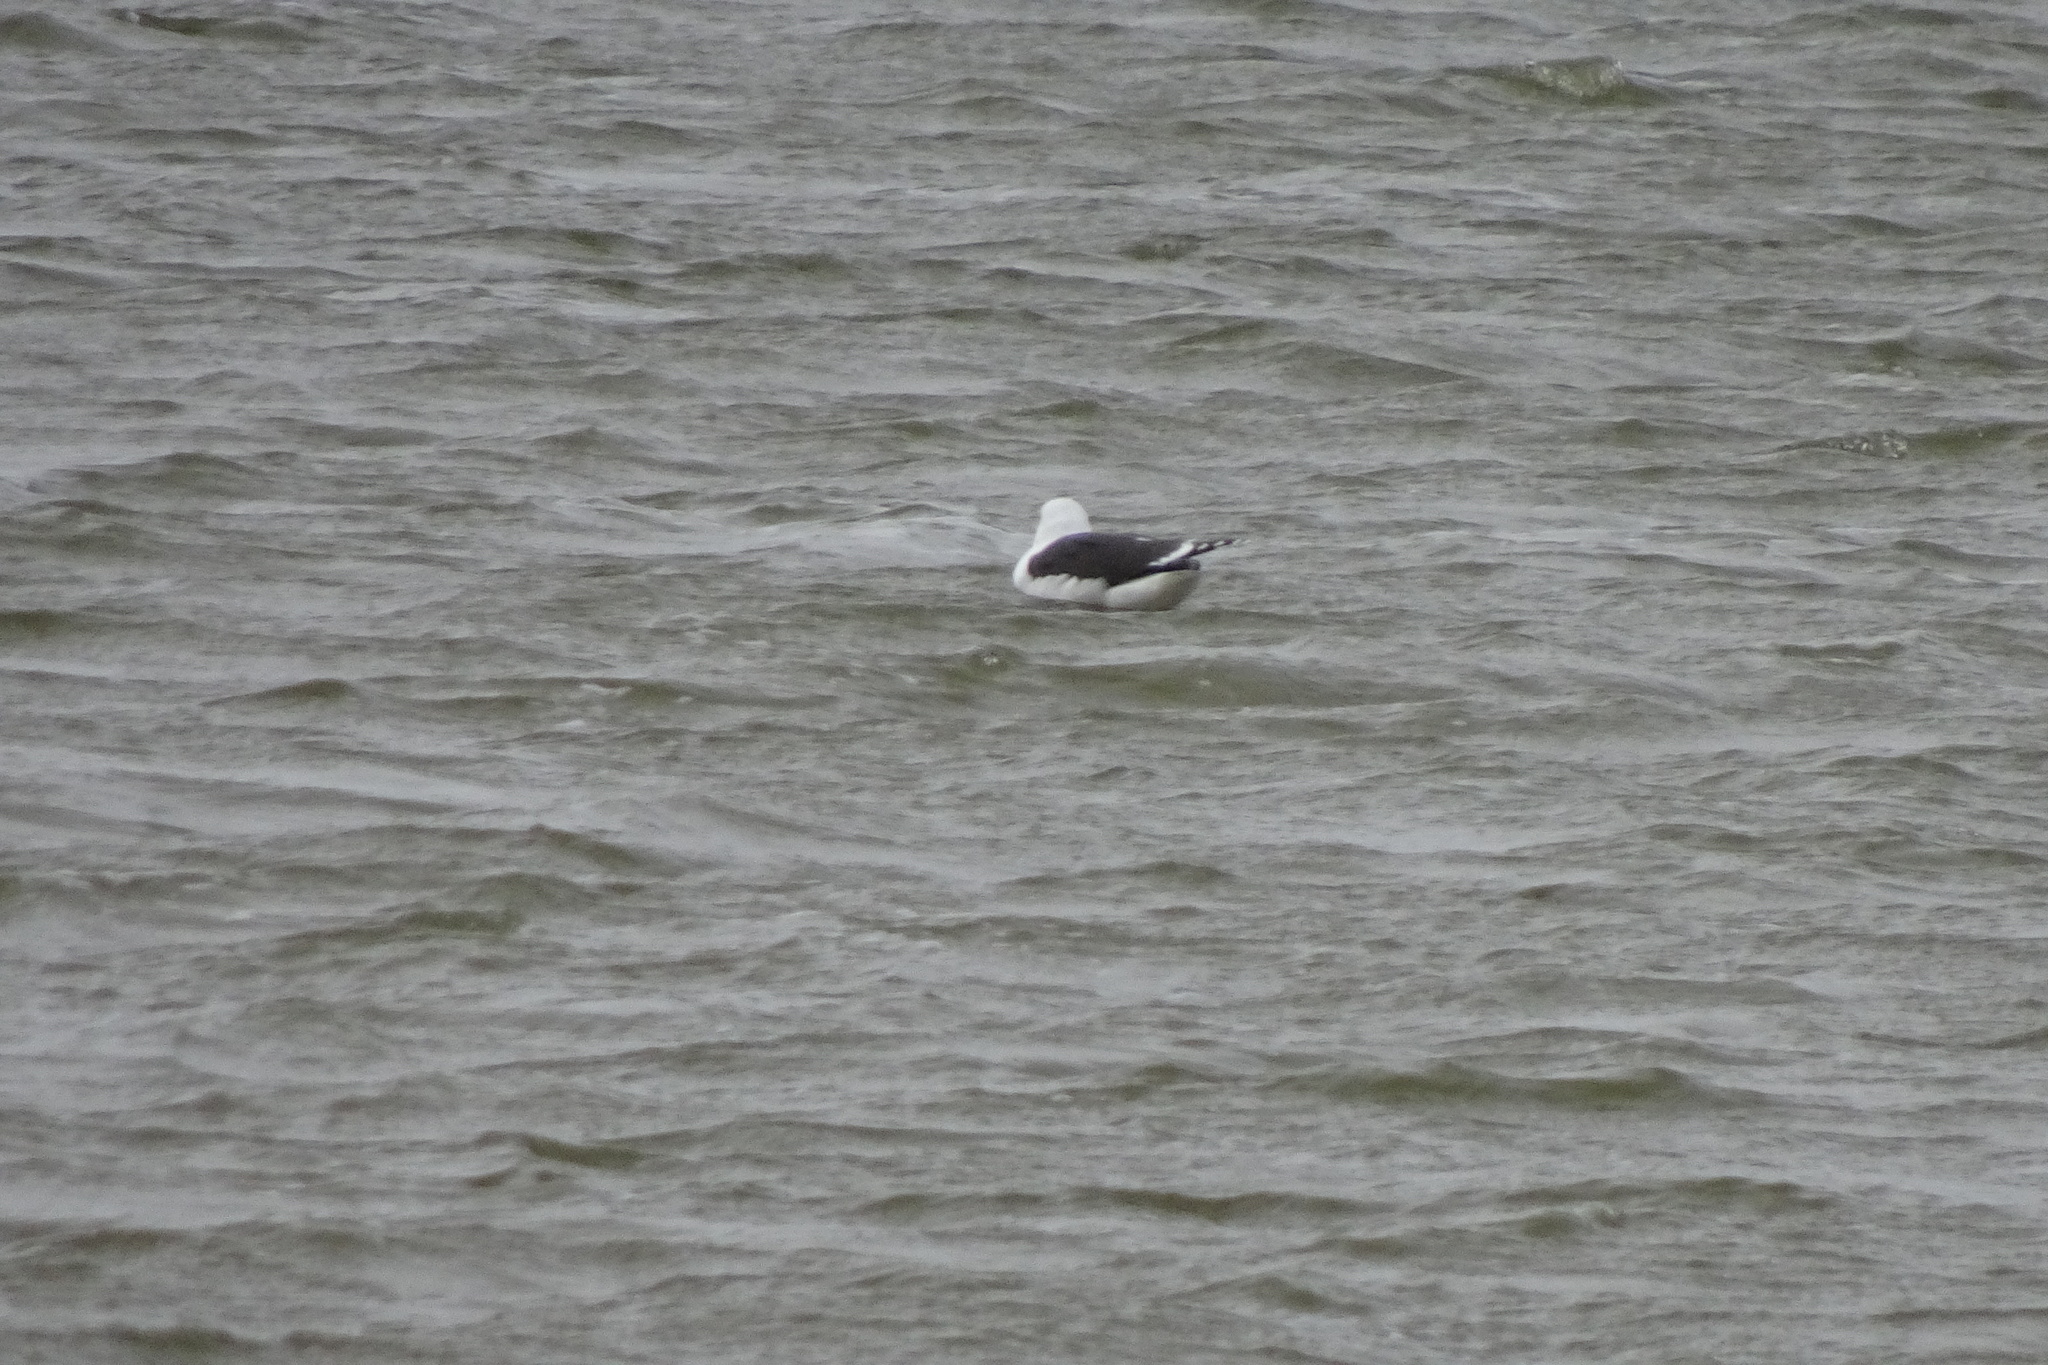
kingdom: Animalia
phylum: Chordata
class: Aves
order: Charadriiformes
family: Laridae
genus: Larus
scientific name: Larus marinus
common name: Great black-backed gull
